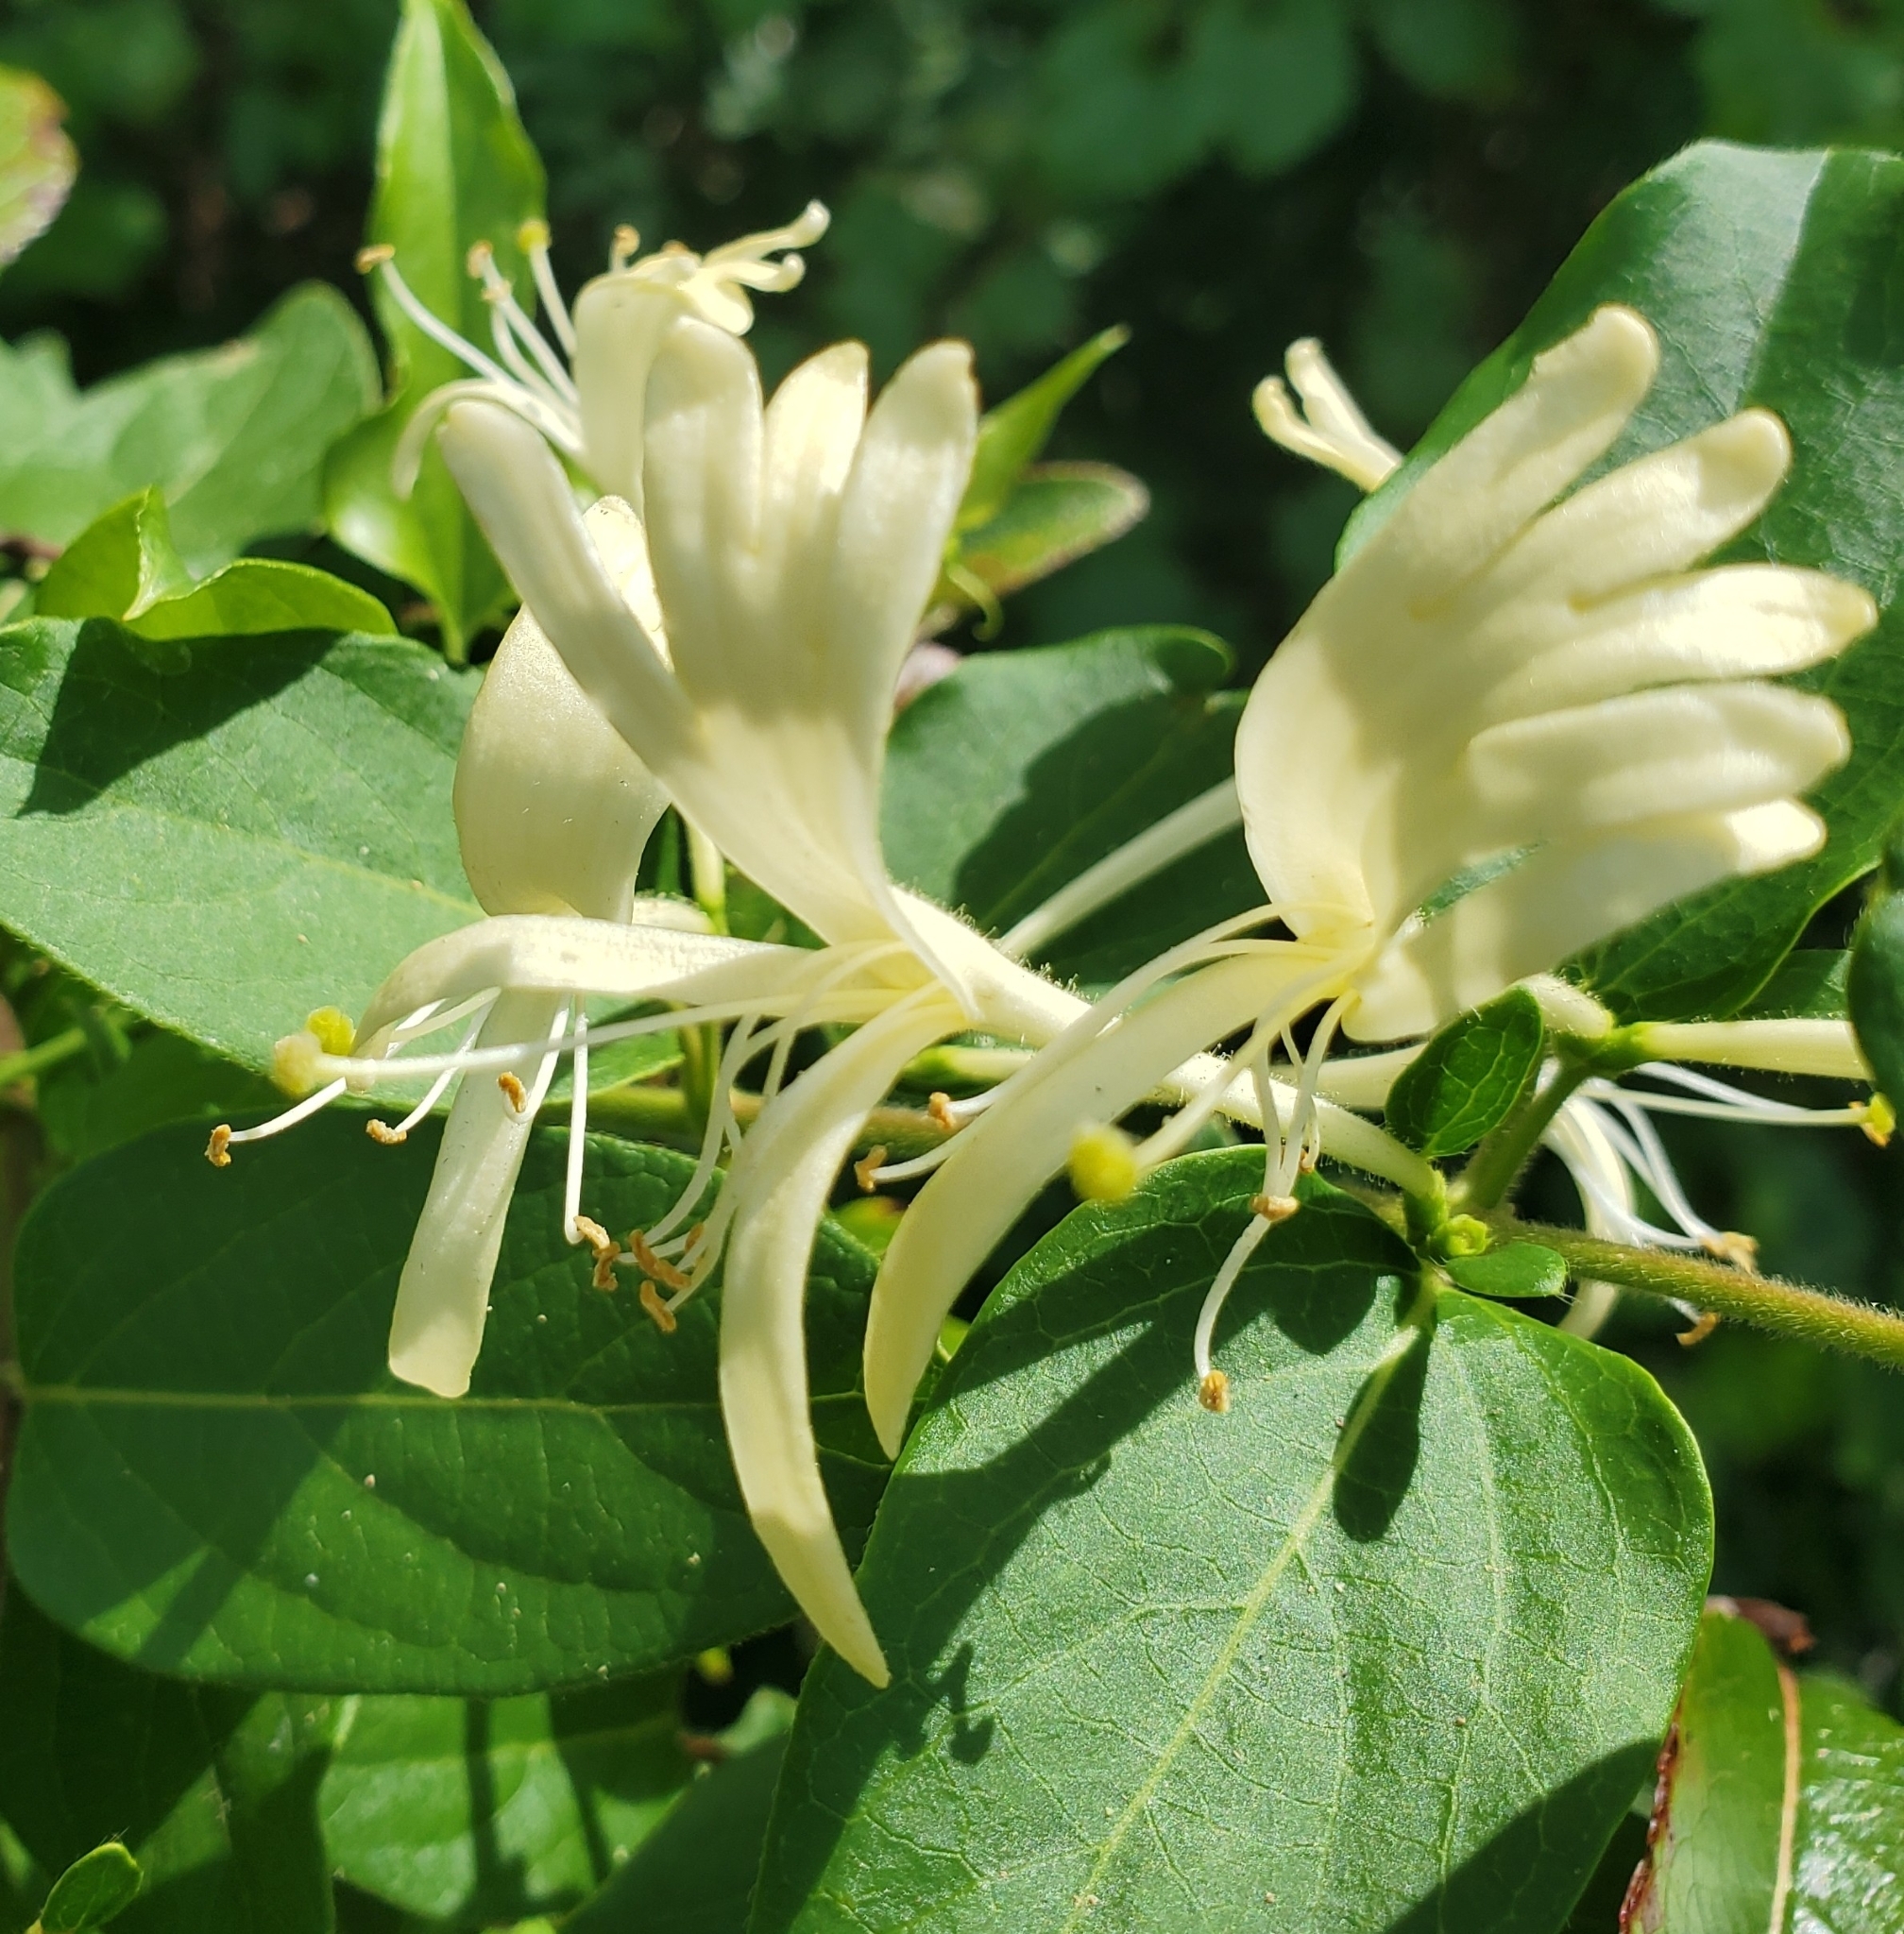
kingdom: Plantae
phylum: Tracheophyta
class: Magnoliopsida
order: Dipsacales
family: Caprifoliaceae
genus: Lonicera
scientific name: Lonicera japonica
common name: Japanese honeysuckle
